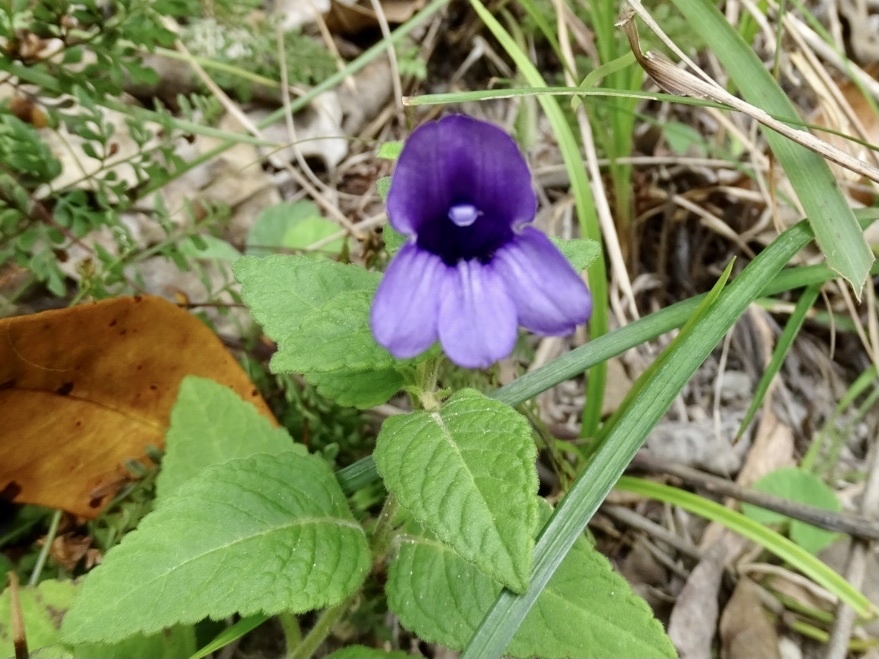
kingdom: Plantae
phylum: Tracheophyta
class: Magnoliopsida
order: Lamiales
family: Plantaginaceae
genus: Adenosma
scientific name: Adenosma glutinosa
